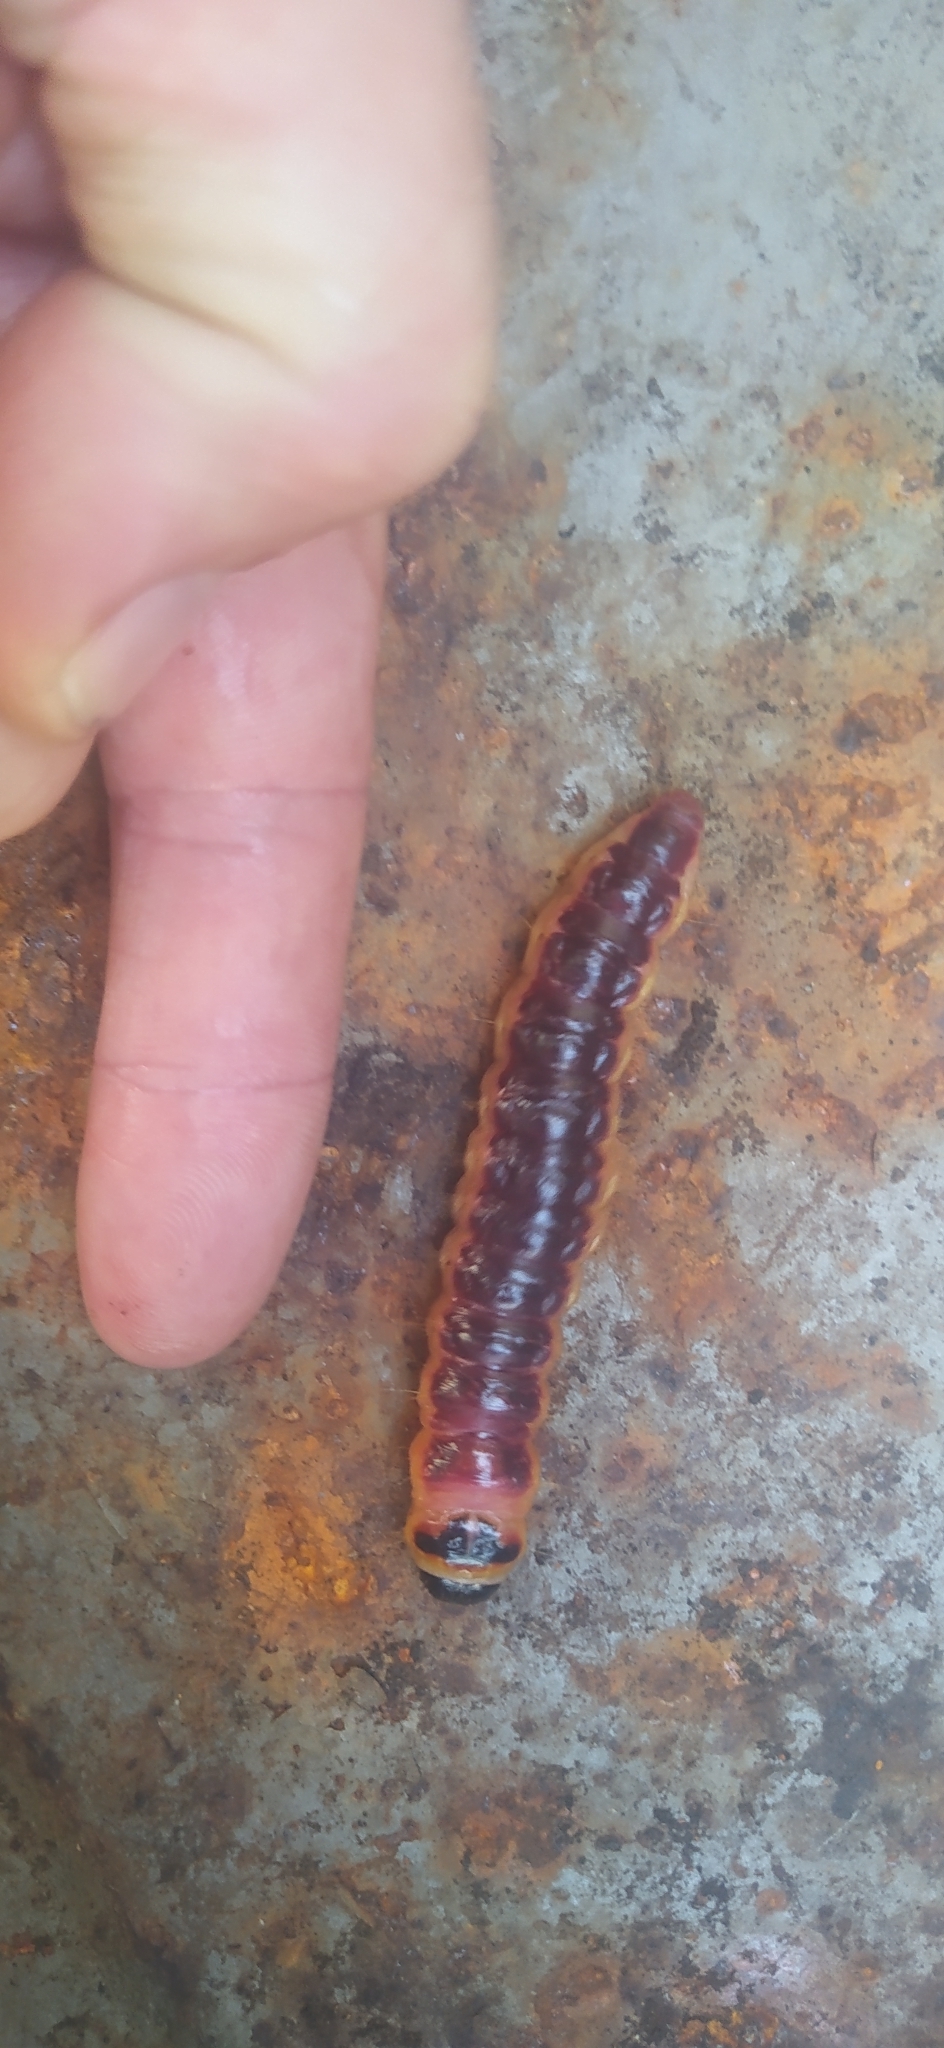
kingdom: Animalia
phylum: Arthropoda
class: Insecta
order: Lepidoptera
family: Cossidae
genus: Cossus
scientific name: Cossus cossus
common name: Goat moth
